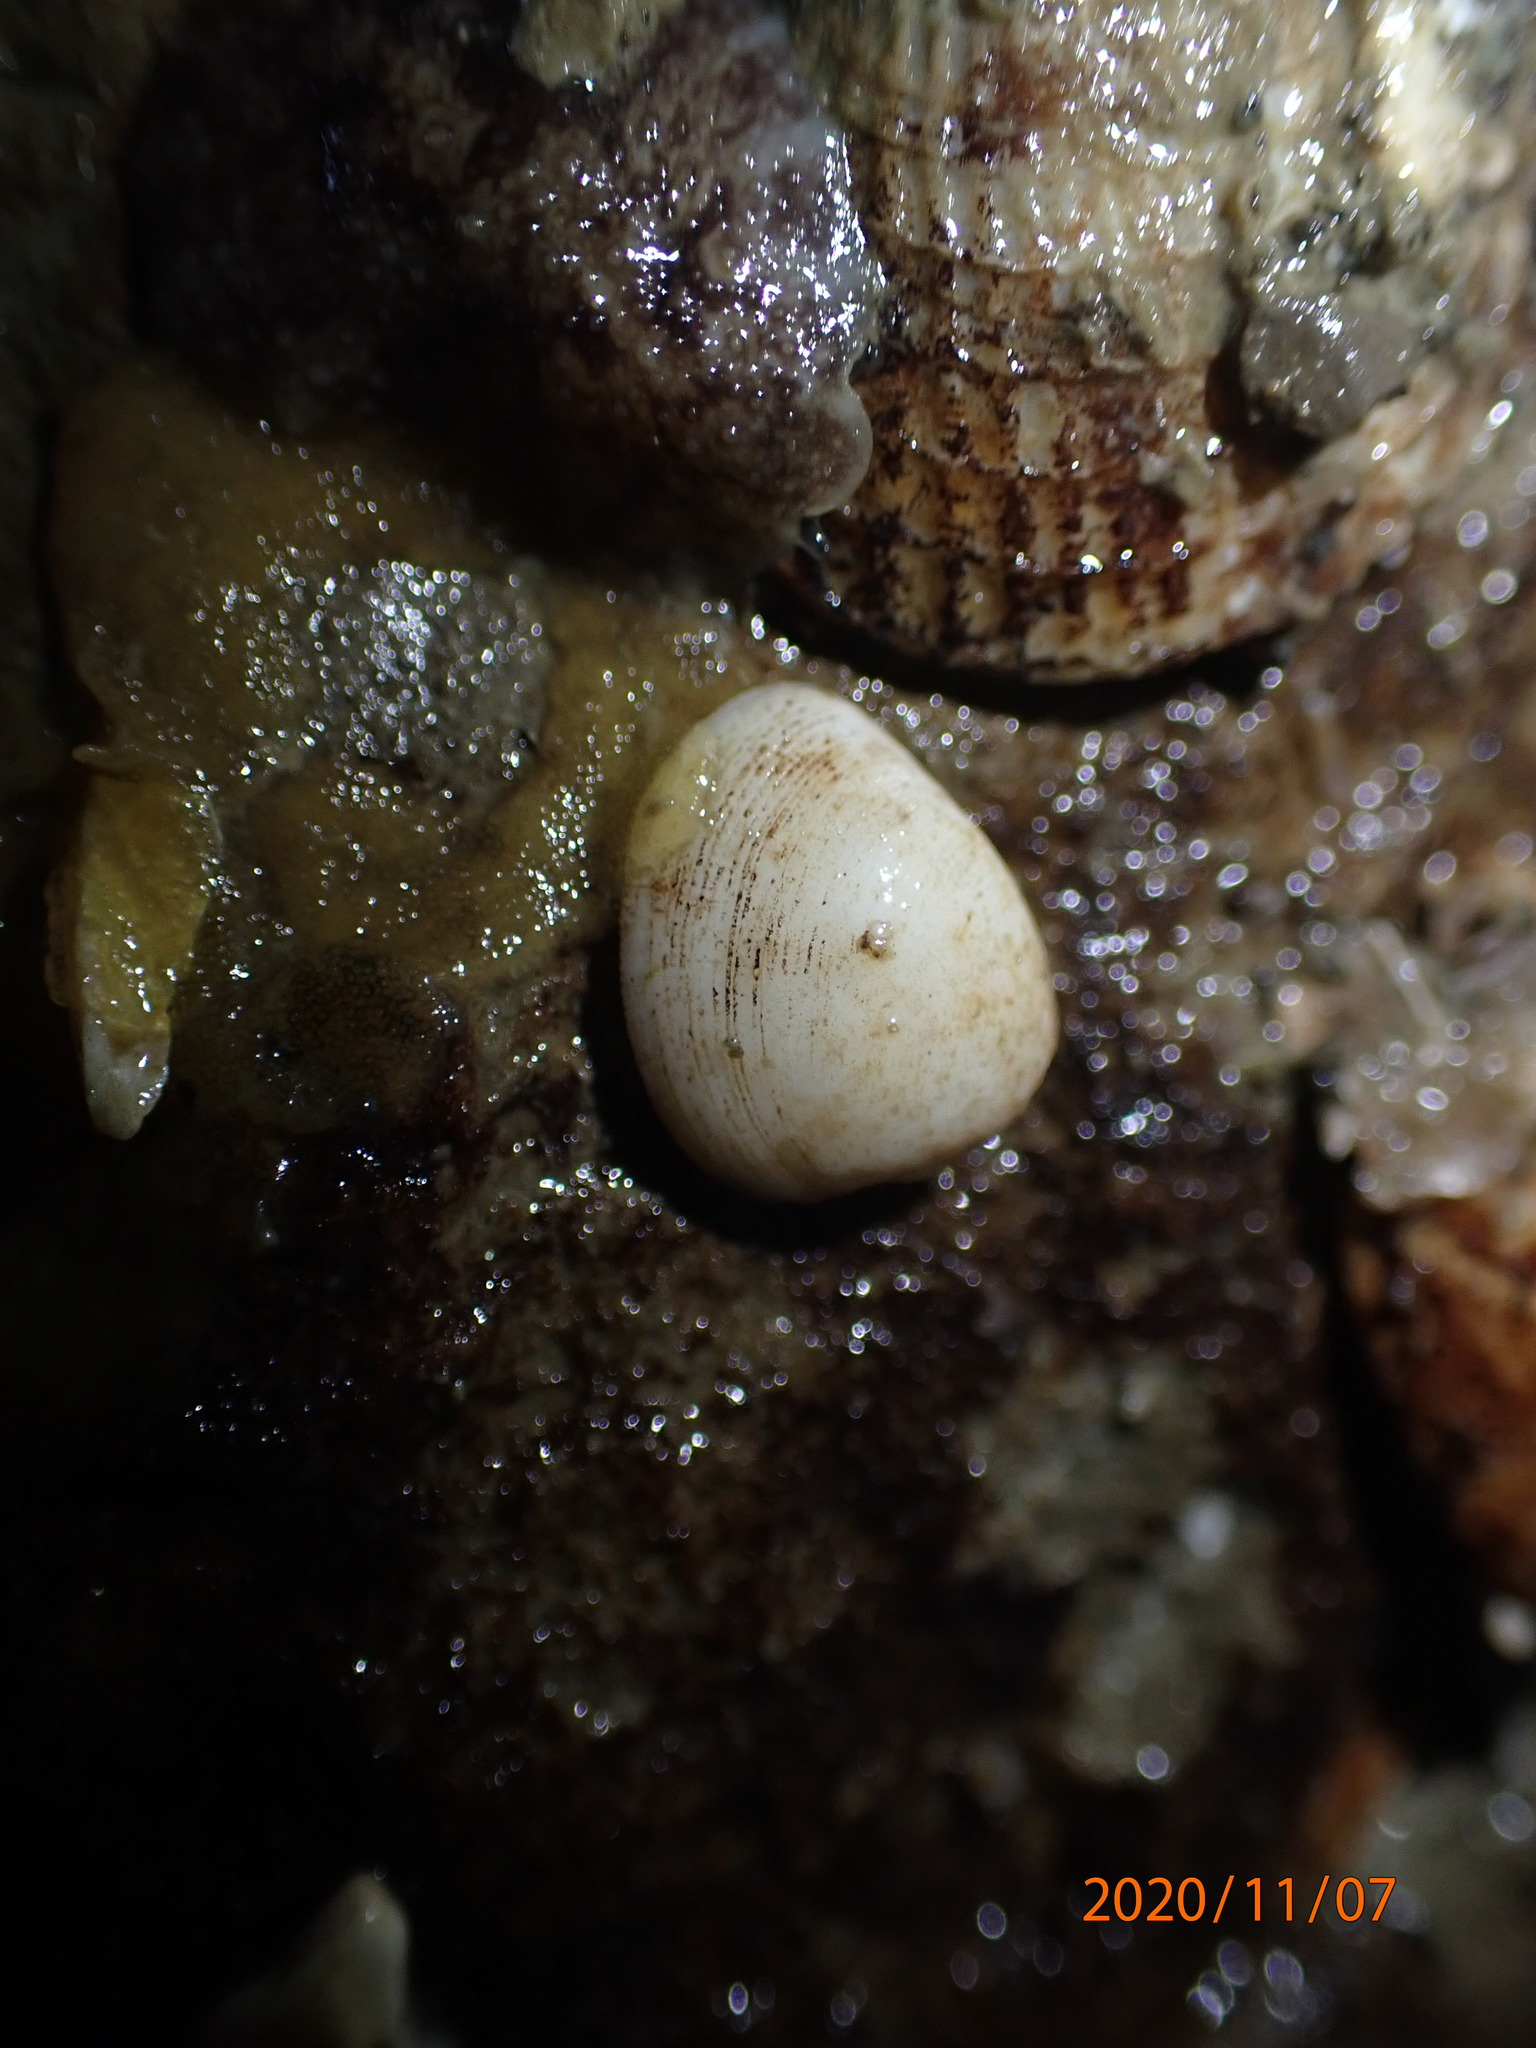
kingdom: Animalia
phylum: Mollusca
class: Bivalvia
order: Nuculida
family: Nuculidae
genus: Linucula
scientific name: Linucula hartvigiana
